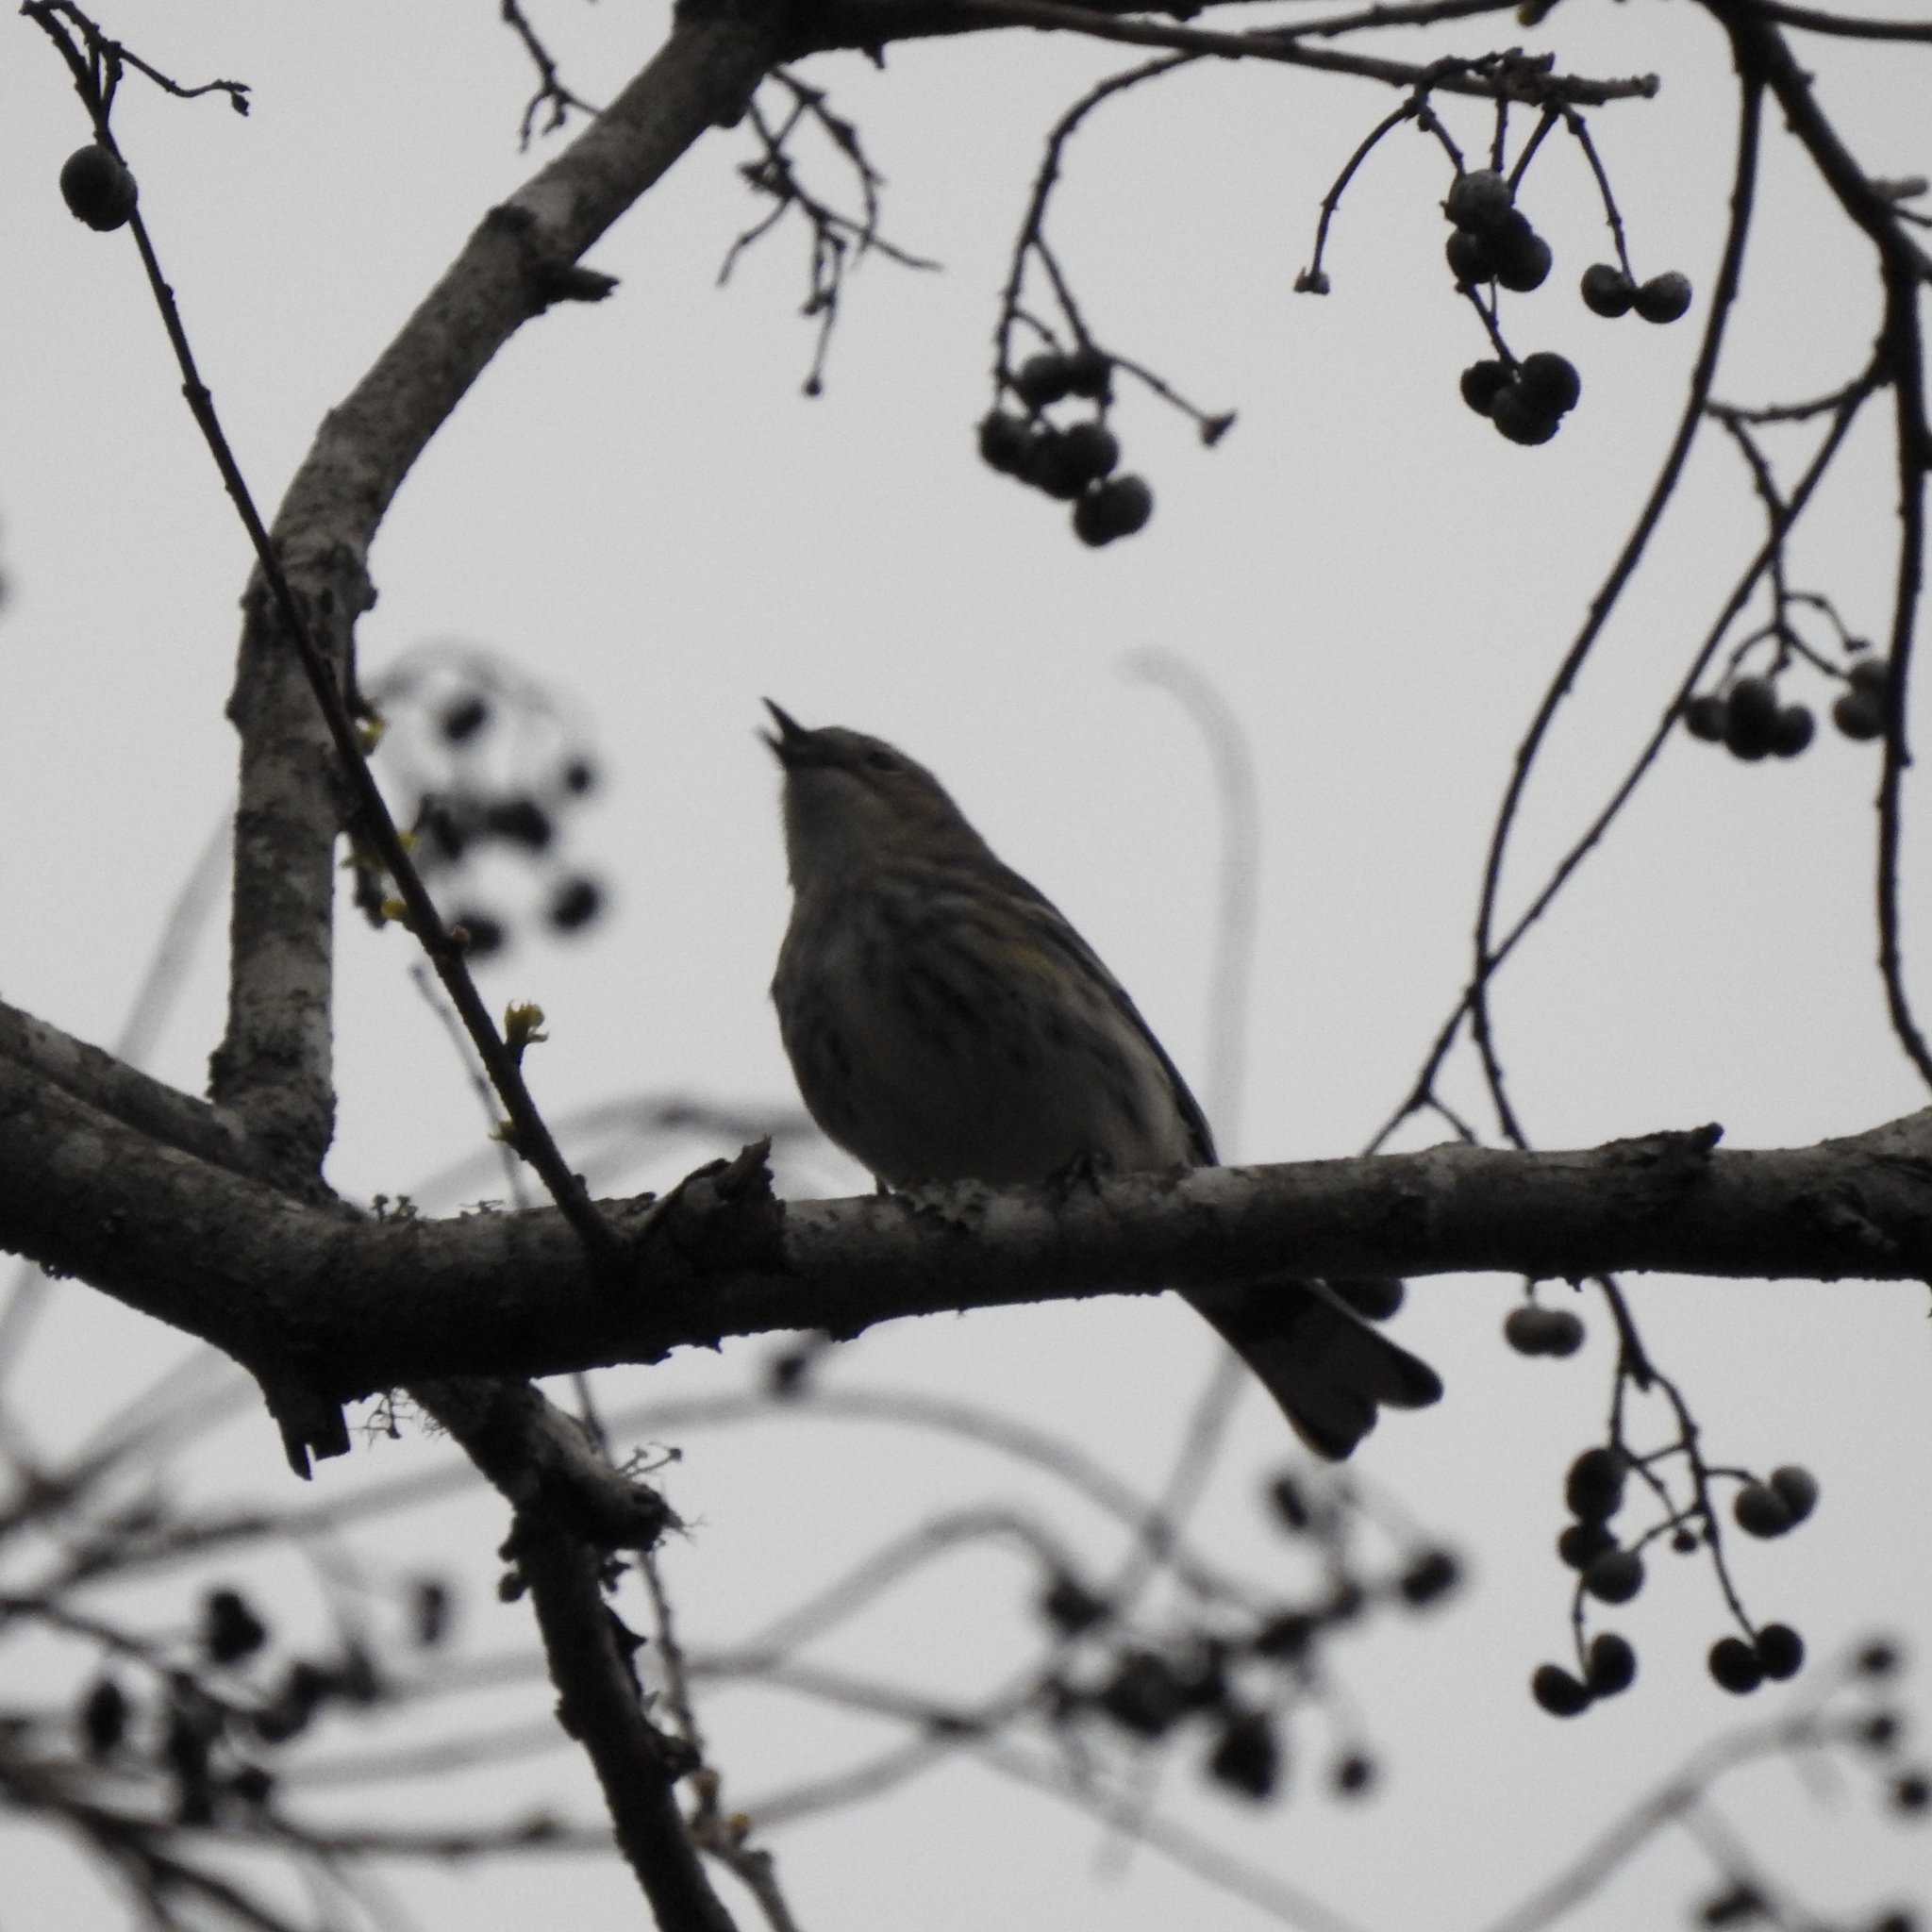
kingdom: Animalia
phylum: Chordata
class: Aves
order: Passeriformes
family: Parulidae
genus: Setophaga
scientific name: Setophaga coronata
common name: Myrtle warbler
